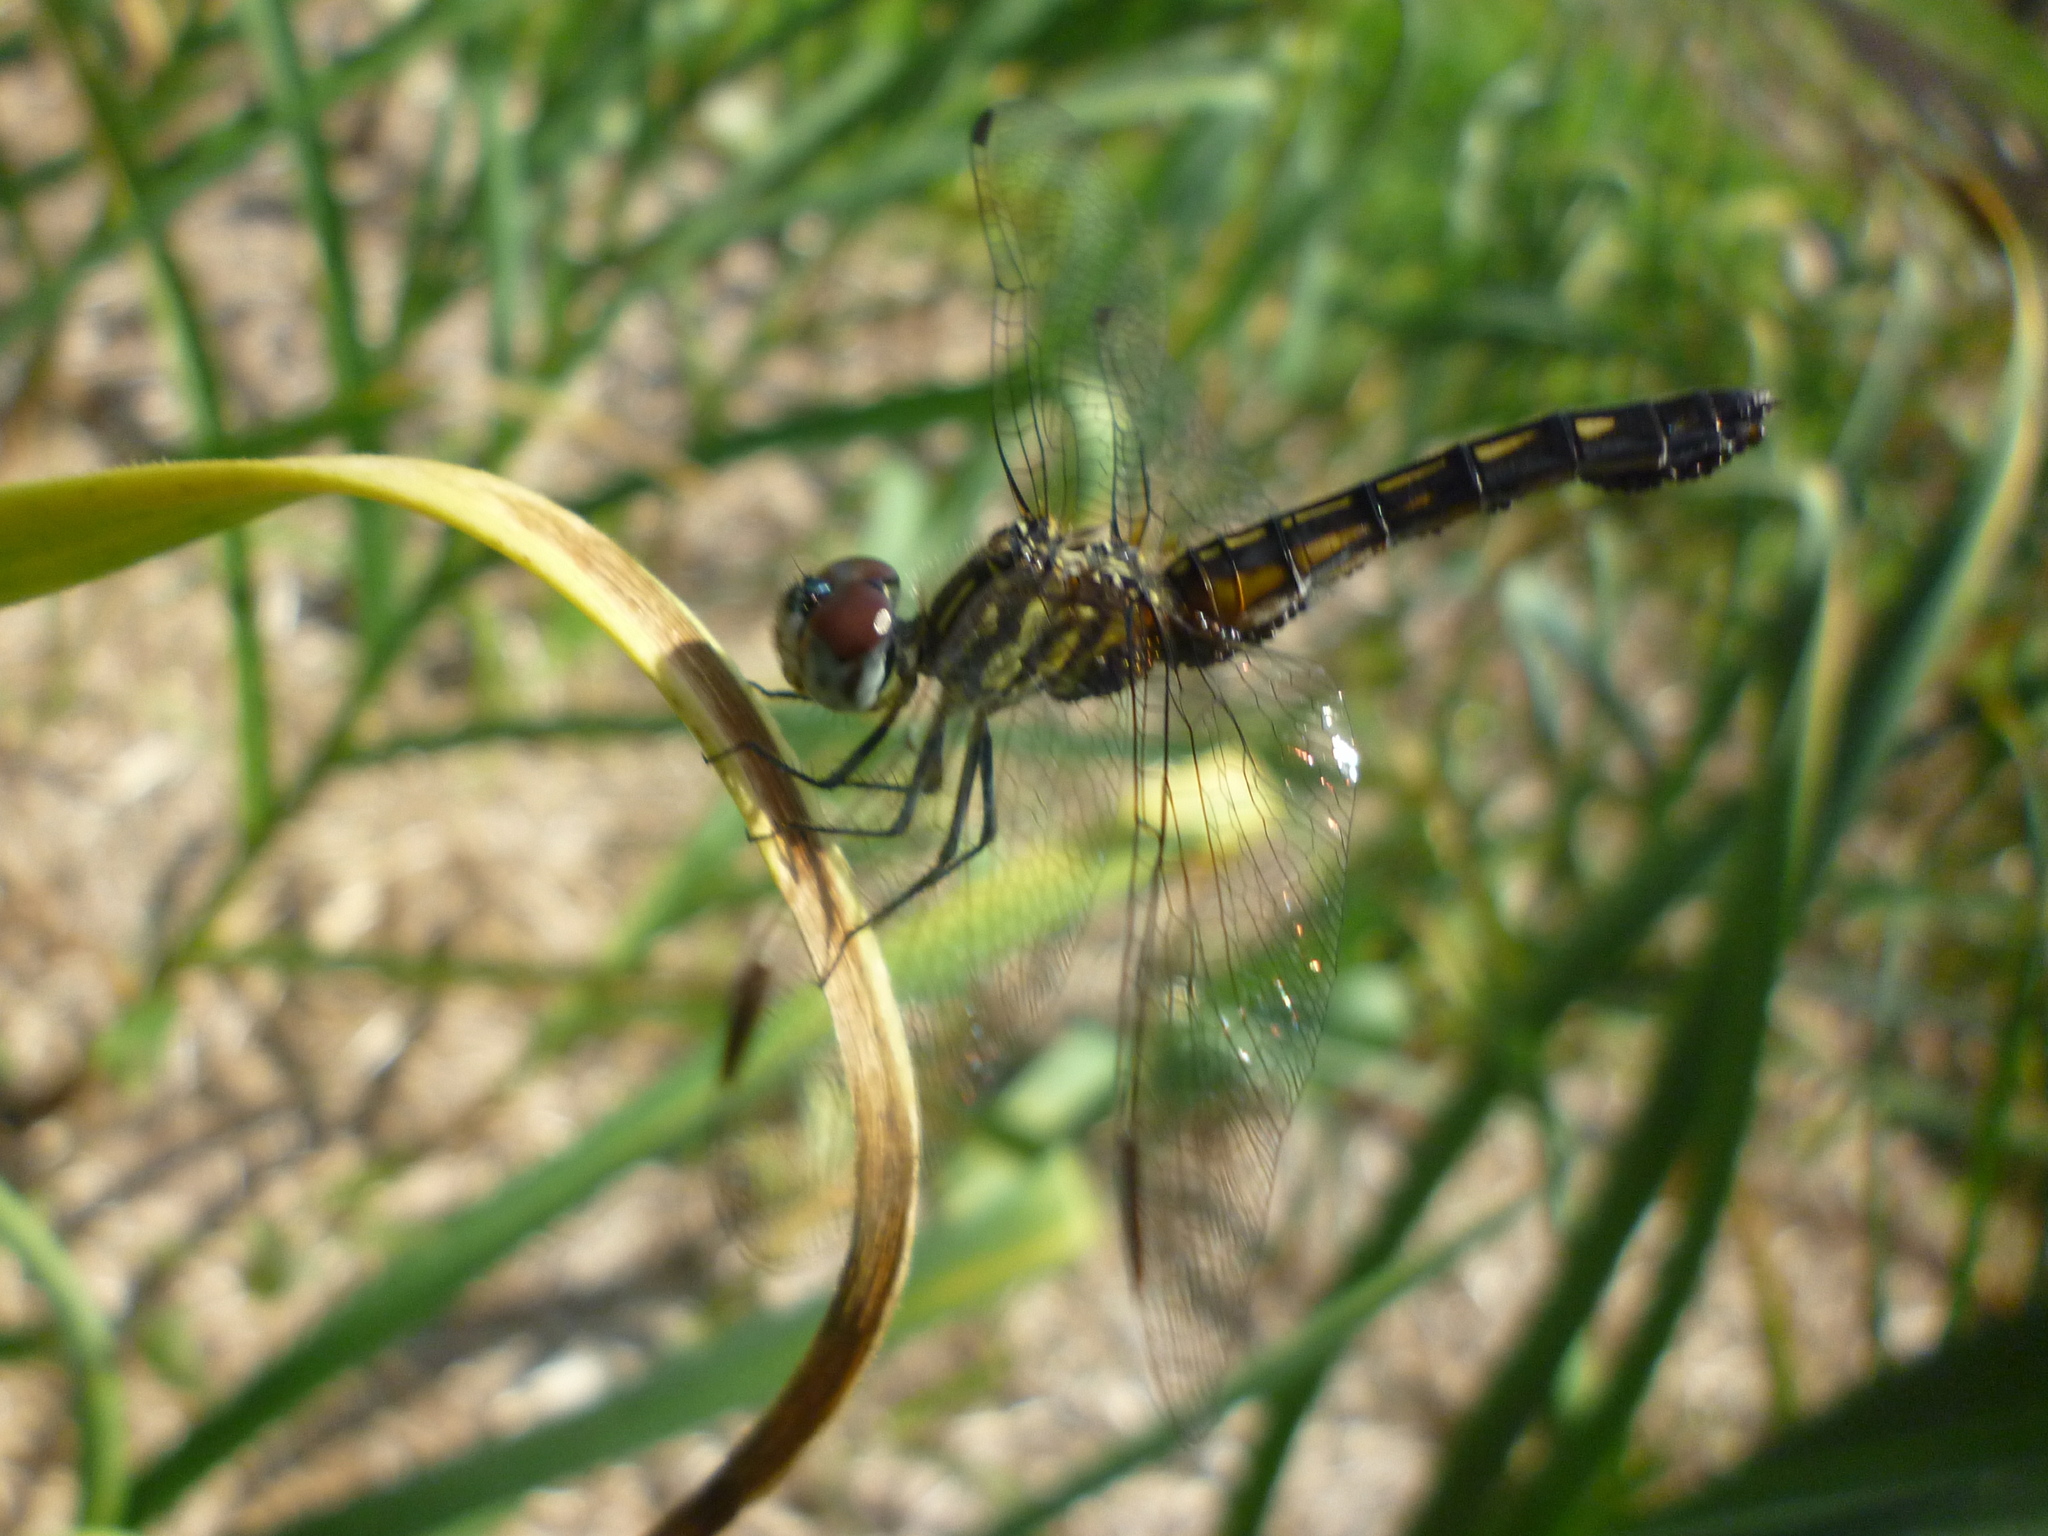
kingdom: Animalia
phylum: Arthropoda
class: Insecta
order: Odonata
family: Libellulidae
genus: Pachydiplax
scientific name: Pachydiplax longipennis
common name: Blue dasher
